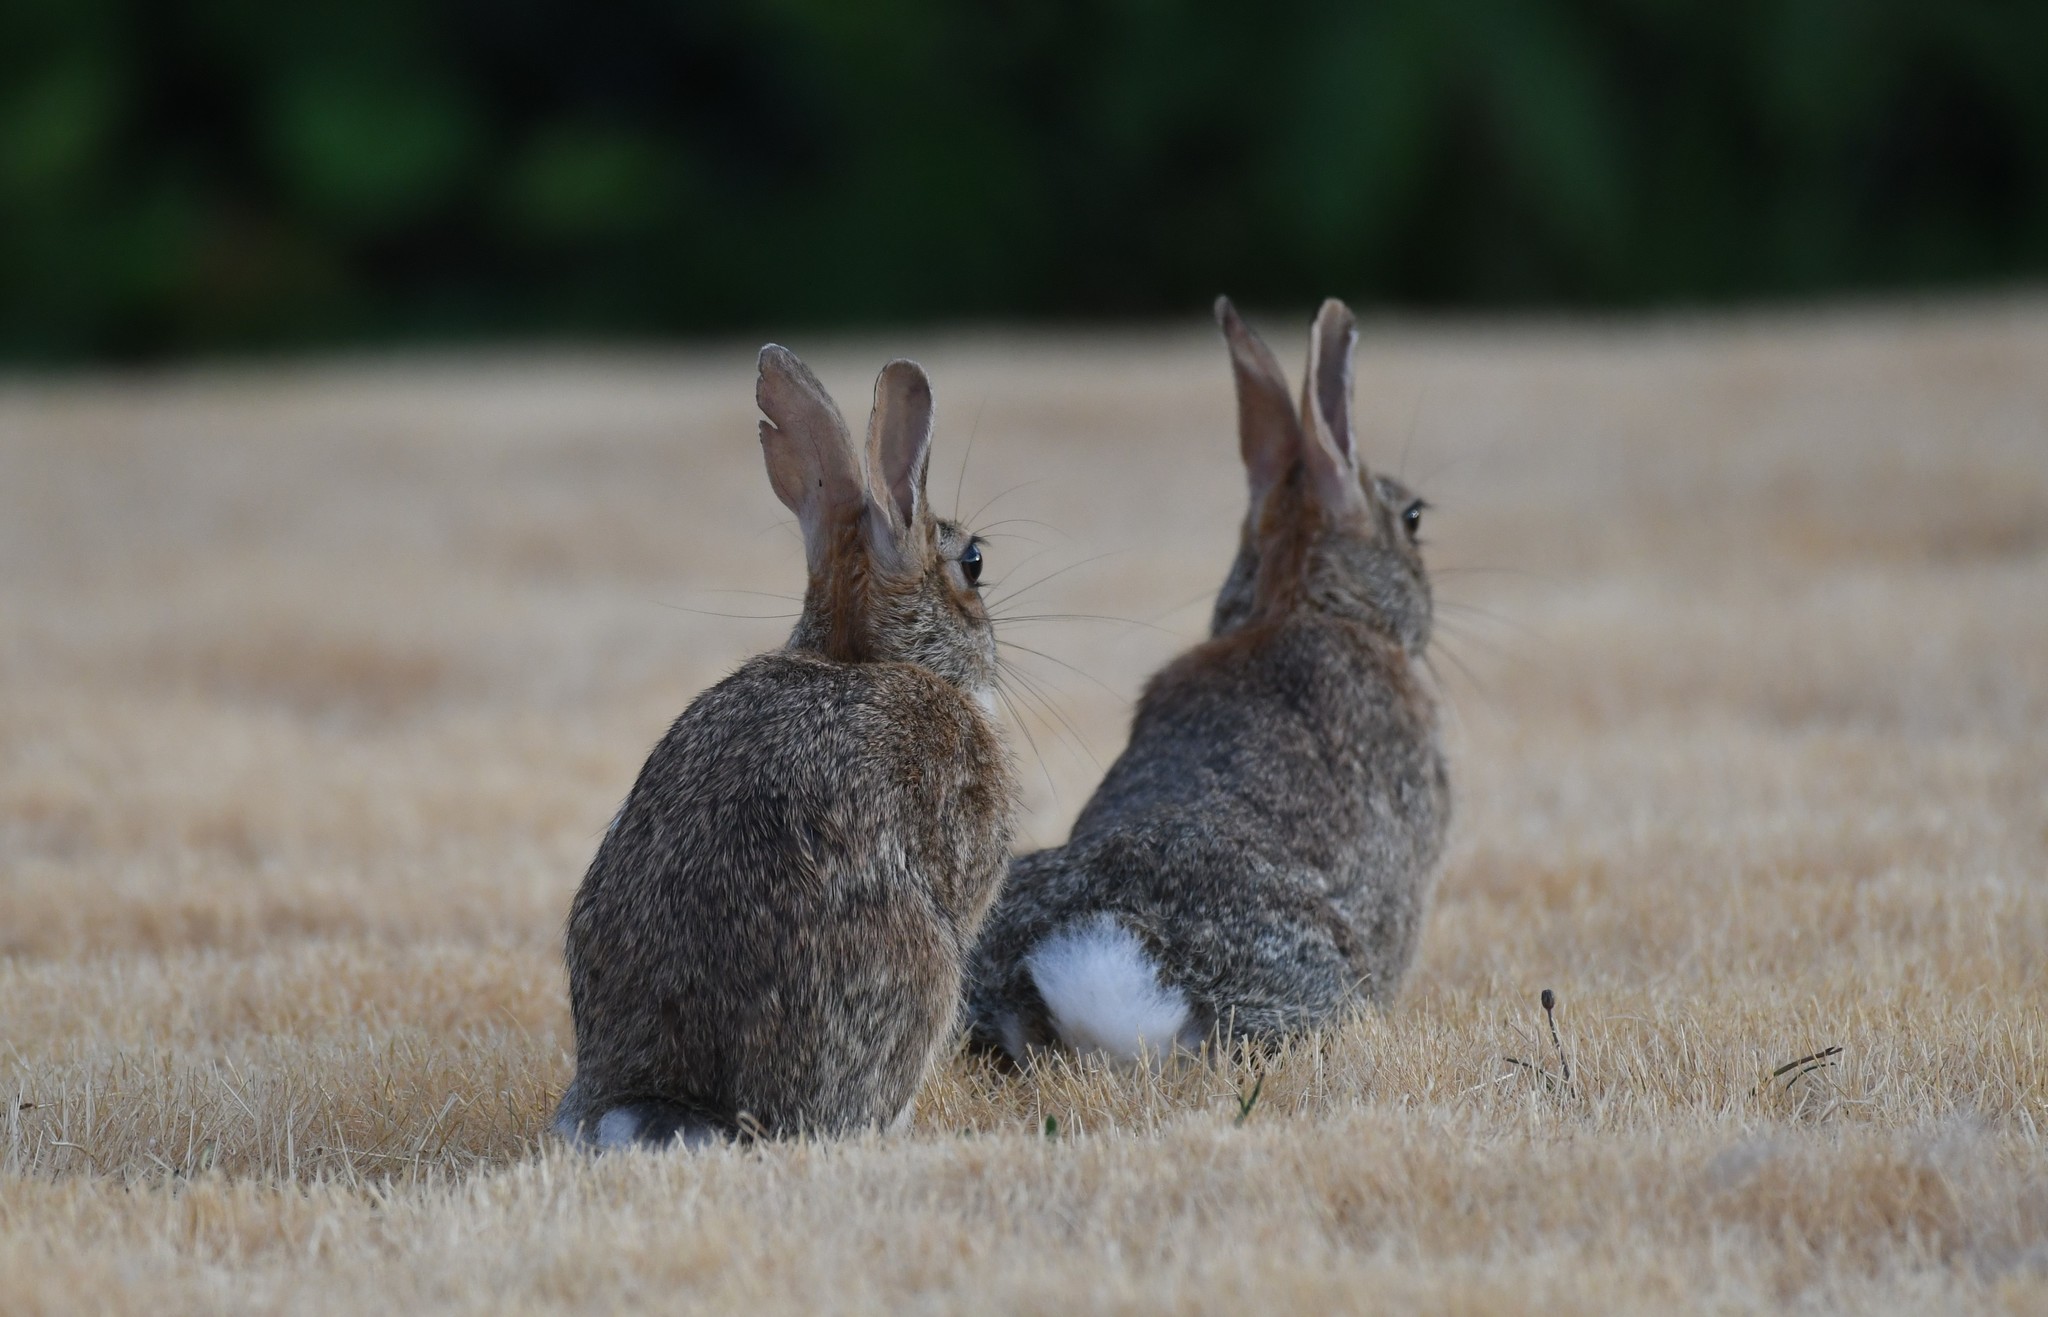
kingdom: Animalia
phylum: Chordata
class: Mammalia
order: Lagomorpha
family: Leporidae
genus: Sylvilagus
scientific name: Sylvilagus floridanus
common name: Eastern cottontail
